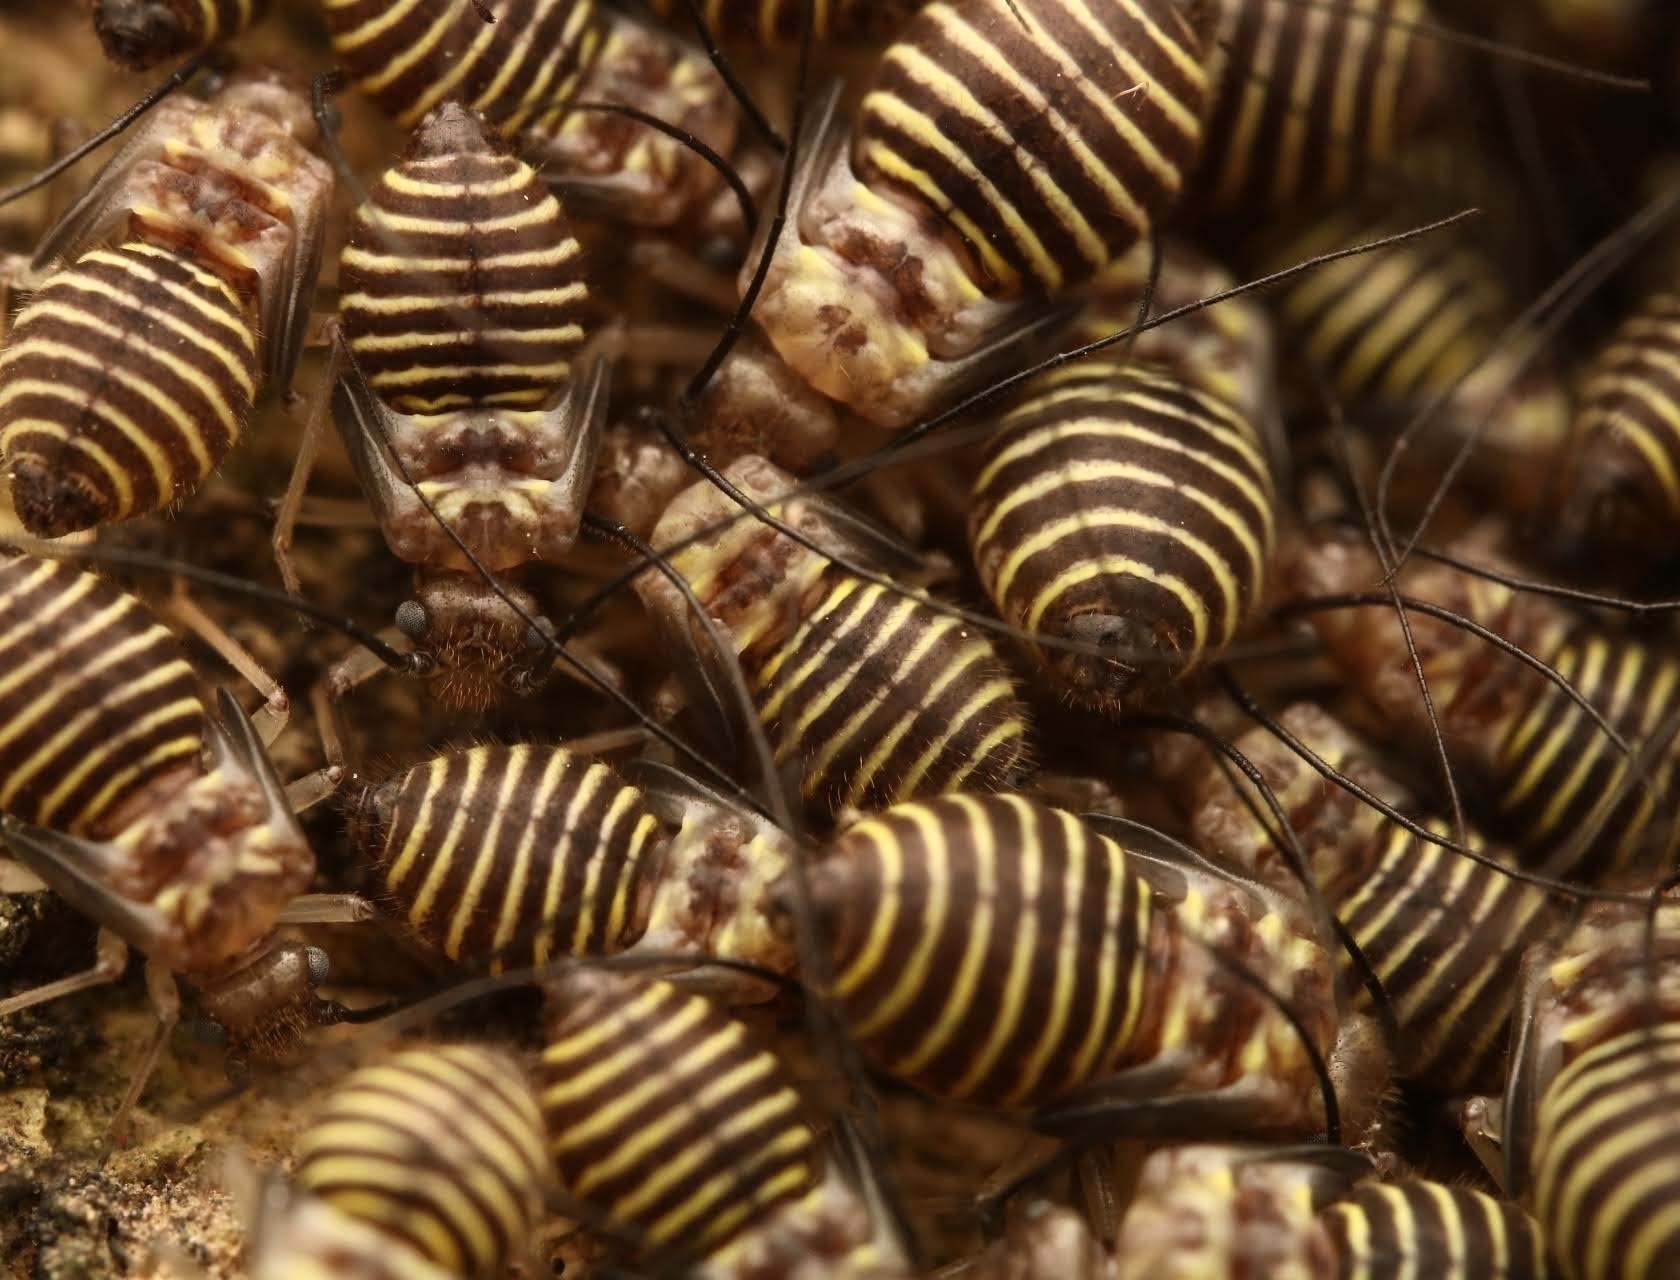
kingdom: Animalia
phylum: Arthropoda
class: Insecta
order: Psocodea
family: Psocidae
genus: Cerastipsocus
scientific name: Cerastipsocus venosus
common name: Tree cattle
